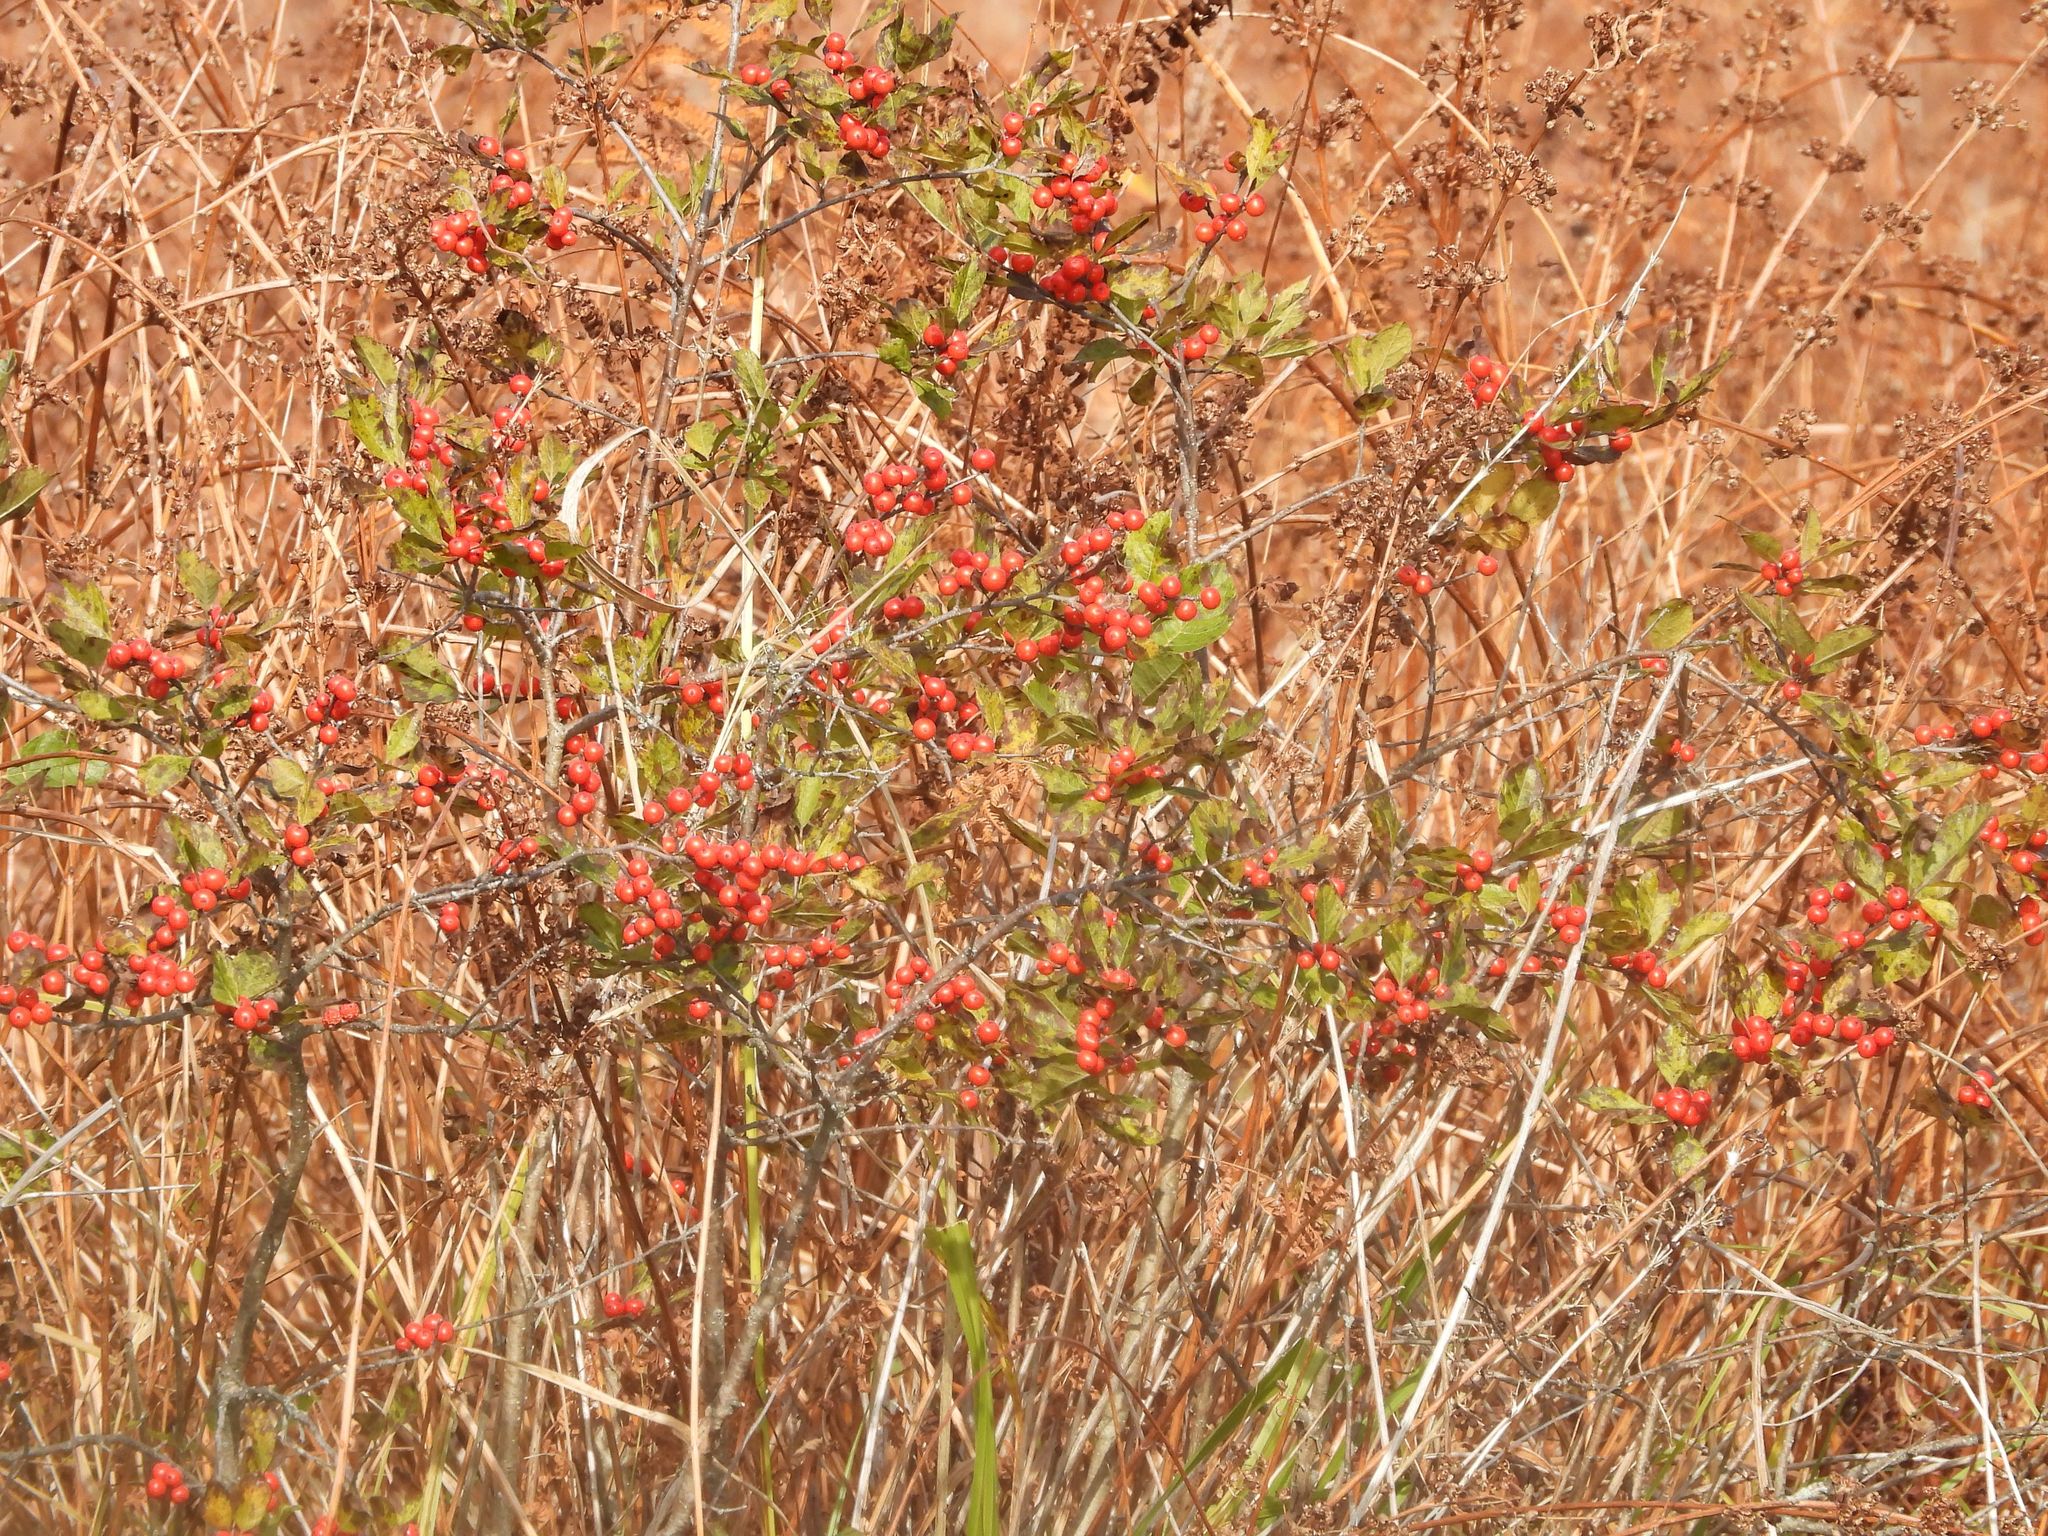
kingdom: Plantae
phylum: Tracheophyta
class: Magnoliopsida
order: Aquifoliales
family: Aquifoliaceae
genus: Ilex
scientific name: Ilex verticillata
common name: Virginia winterberry
